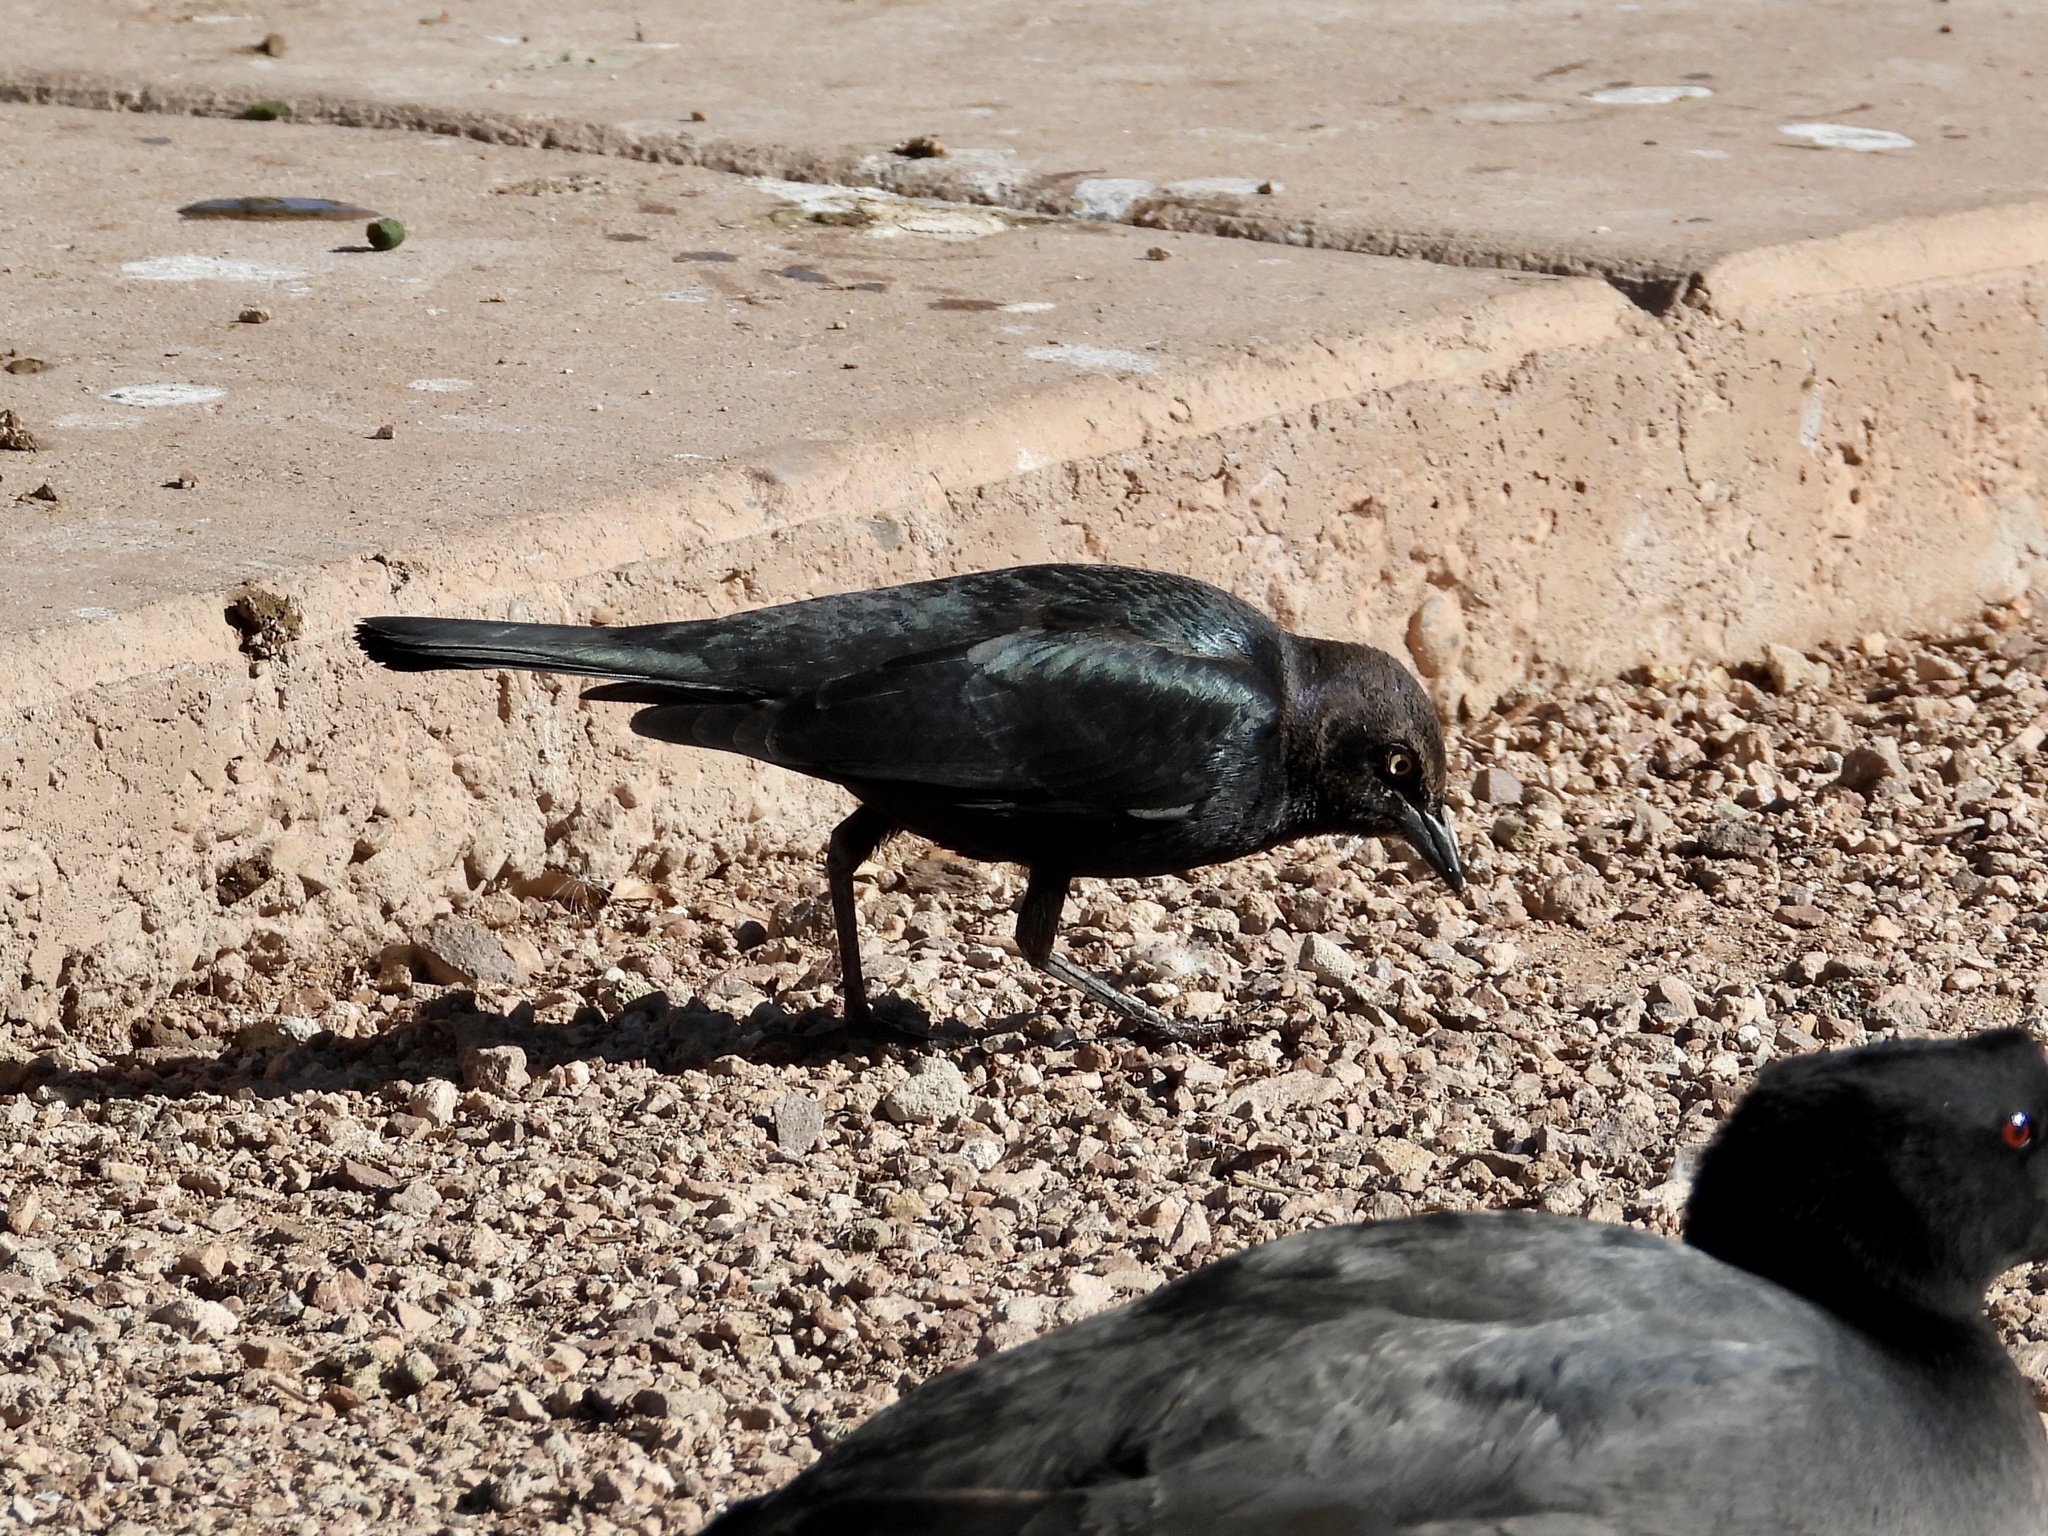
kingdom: Animalia
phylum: Chordata
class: Aves
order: Passeriformes
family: Icteridae
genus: Euphagus
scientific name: Euphagus cyanocephalus
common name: Brewer's blackbird
